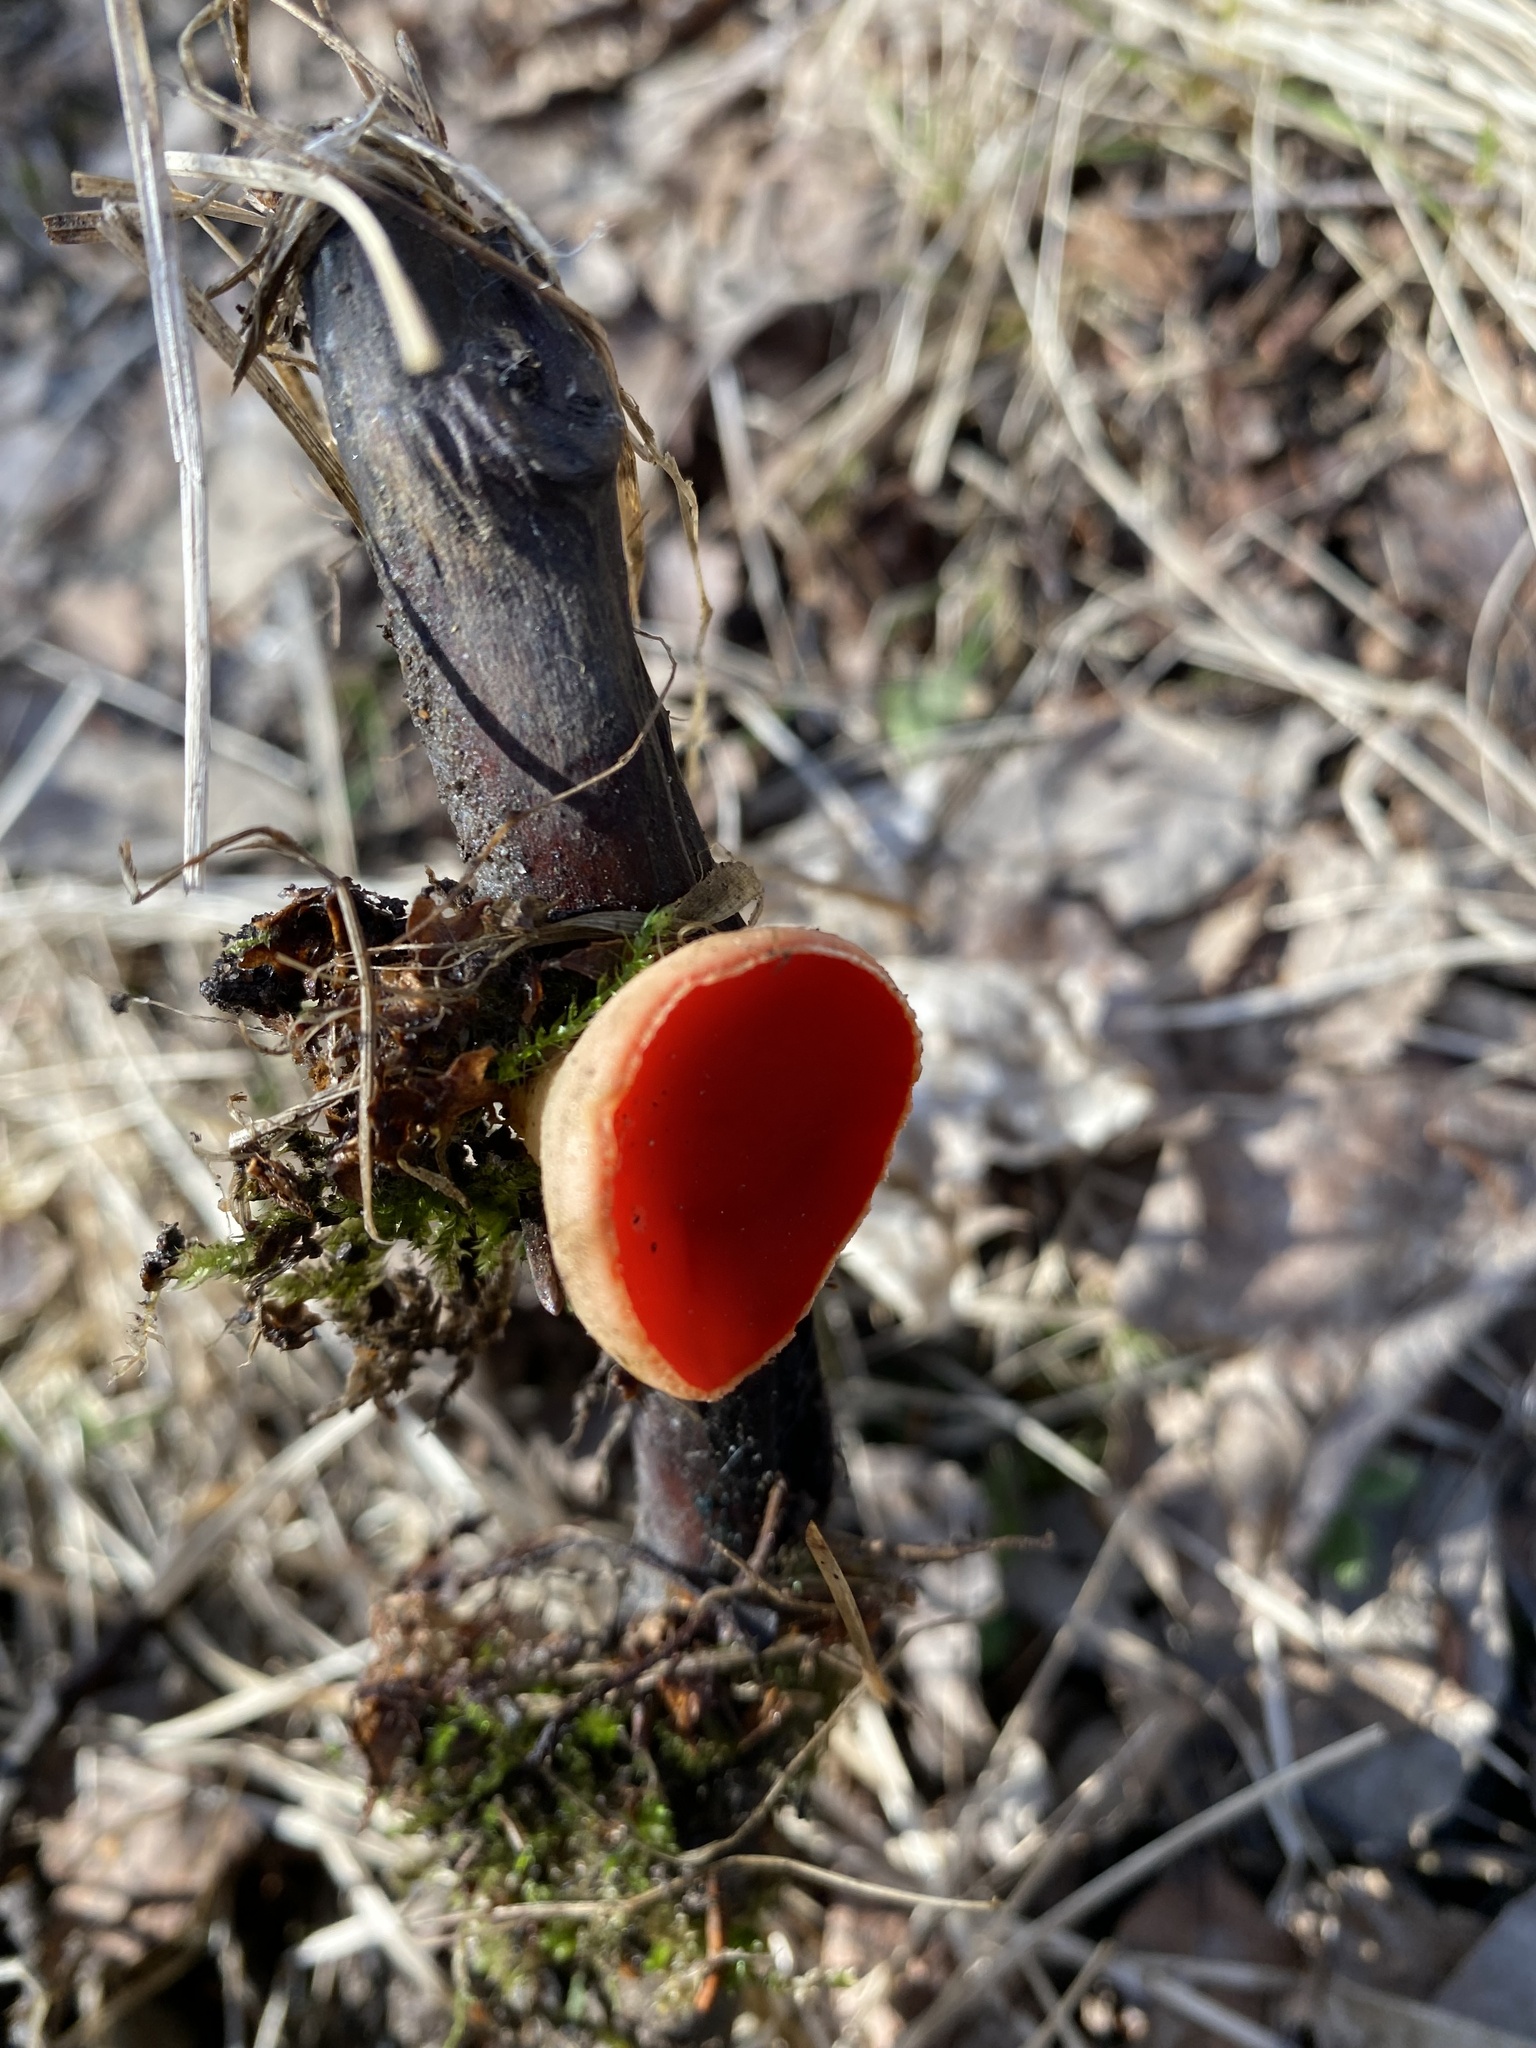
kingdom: Fungi
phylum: Ascomycota
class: Pezizomycetes
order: Pezizales
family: Sarcoscyphaceae
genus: Sarcoscypha
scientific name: Sarcoscypha
